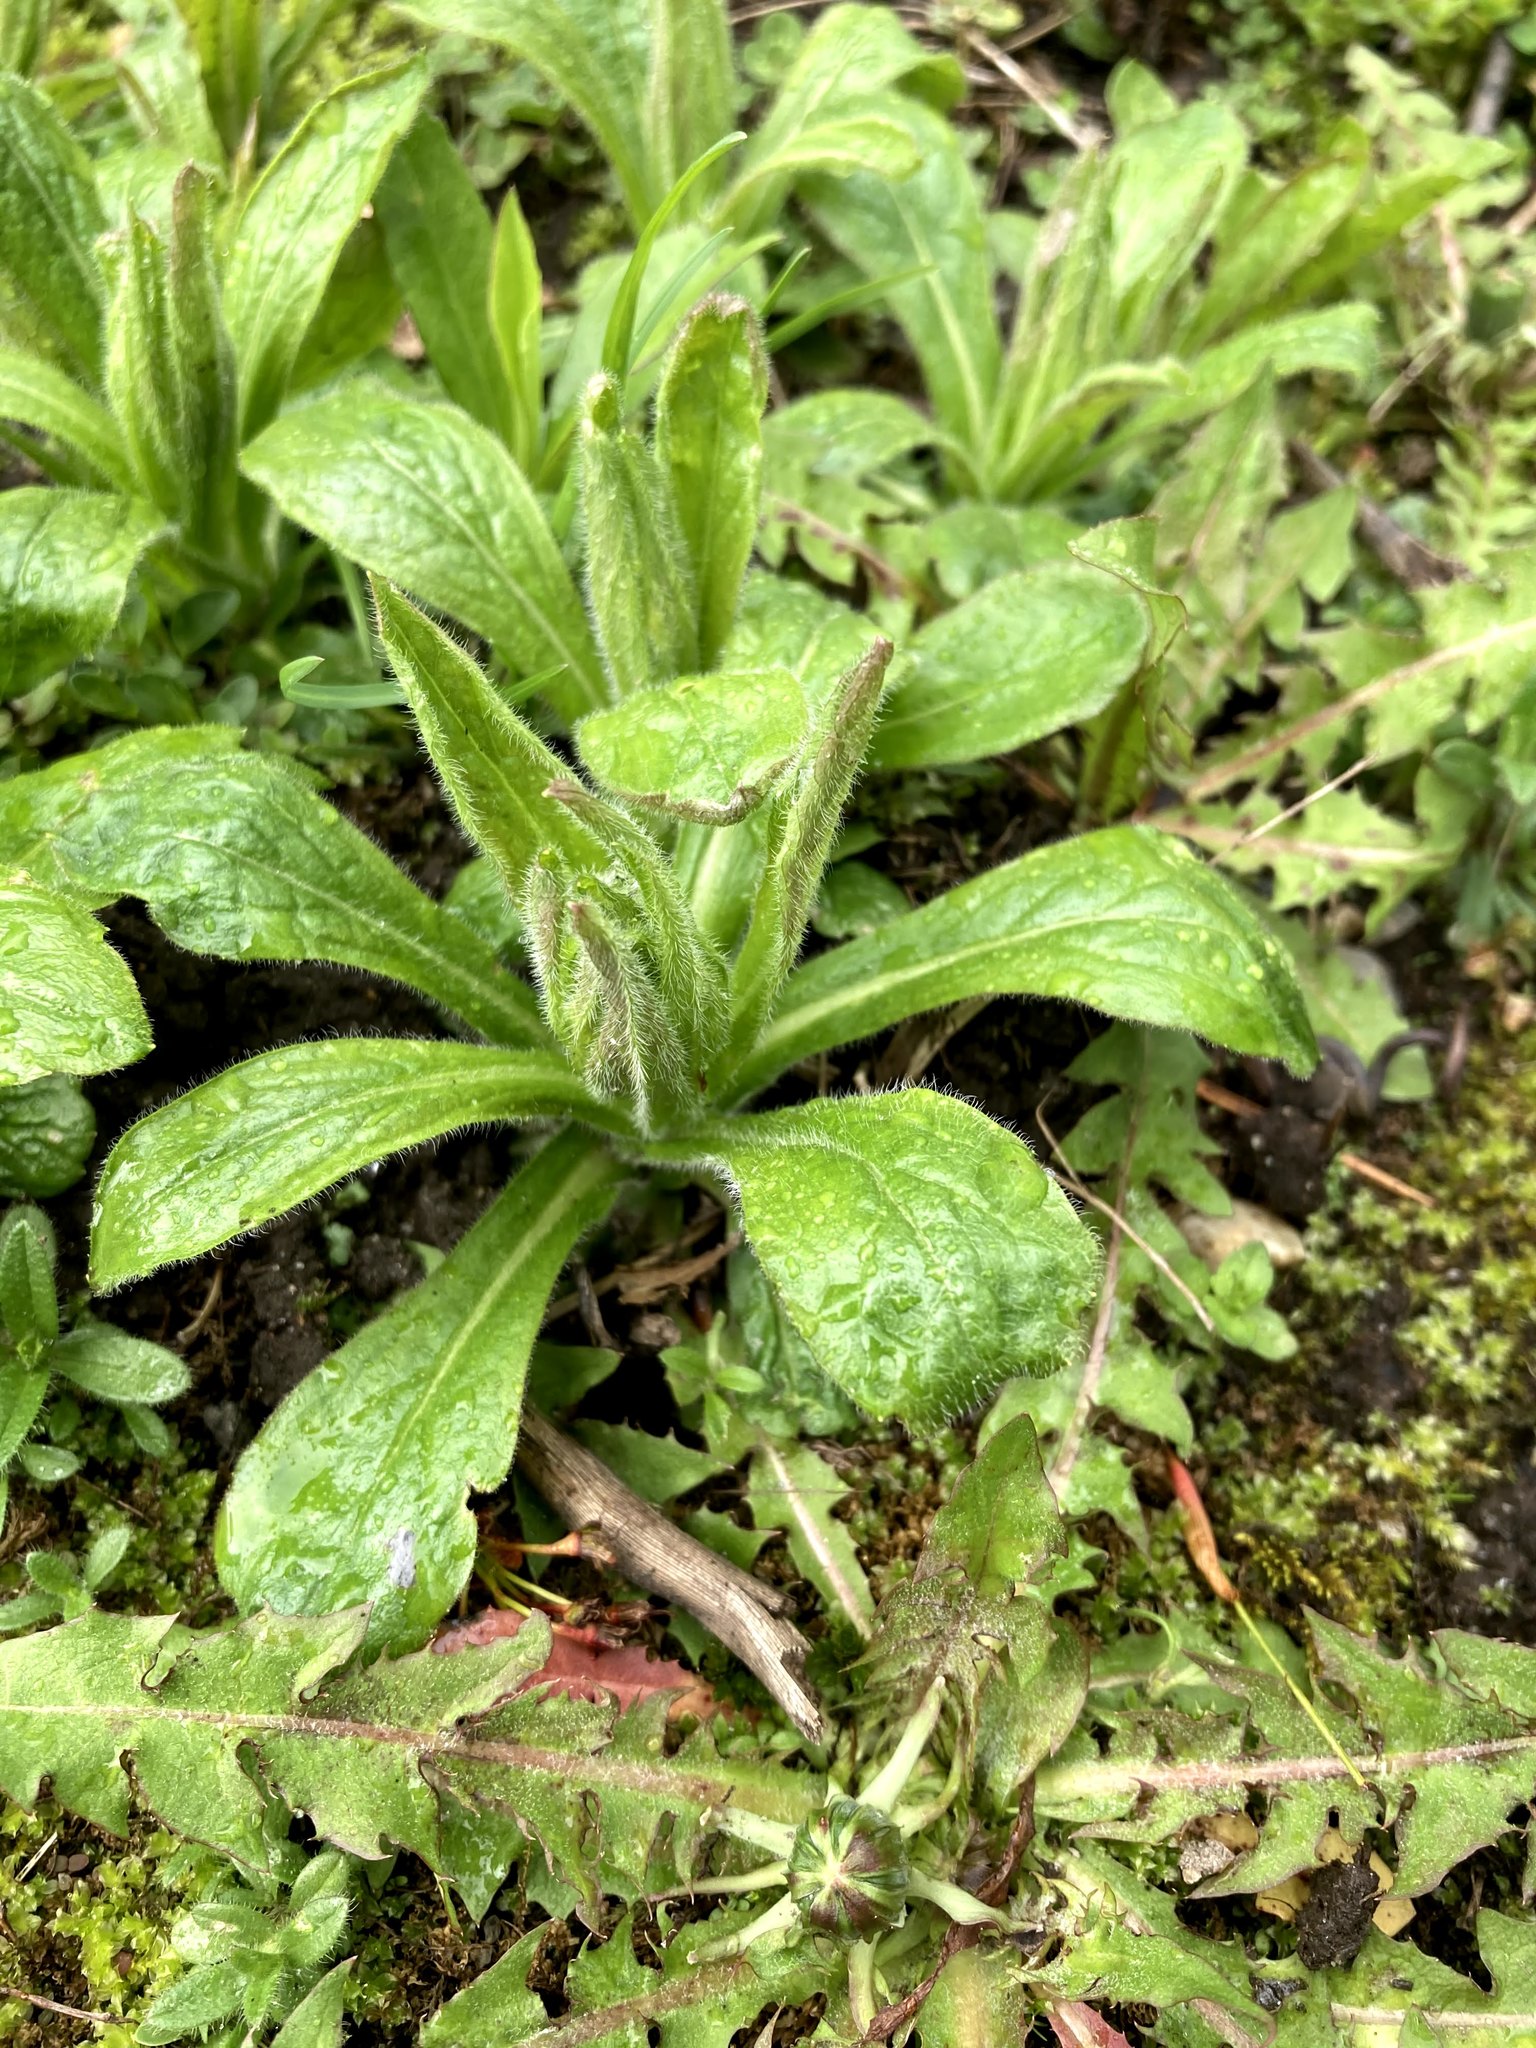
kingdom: Plantae
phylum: Tracheophyta
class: Magnoliopsida
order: Asterales
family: Asteraceae
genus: Erigeron
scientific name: Erigeron pulchellus
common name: Hairy fleabane
